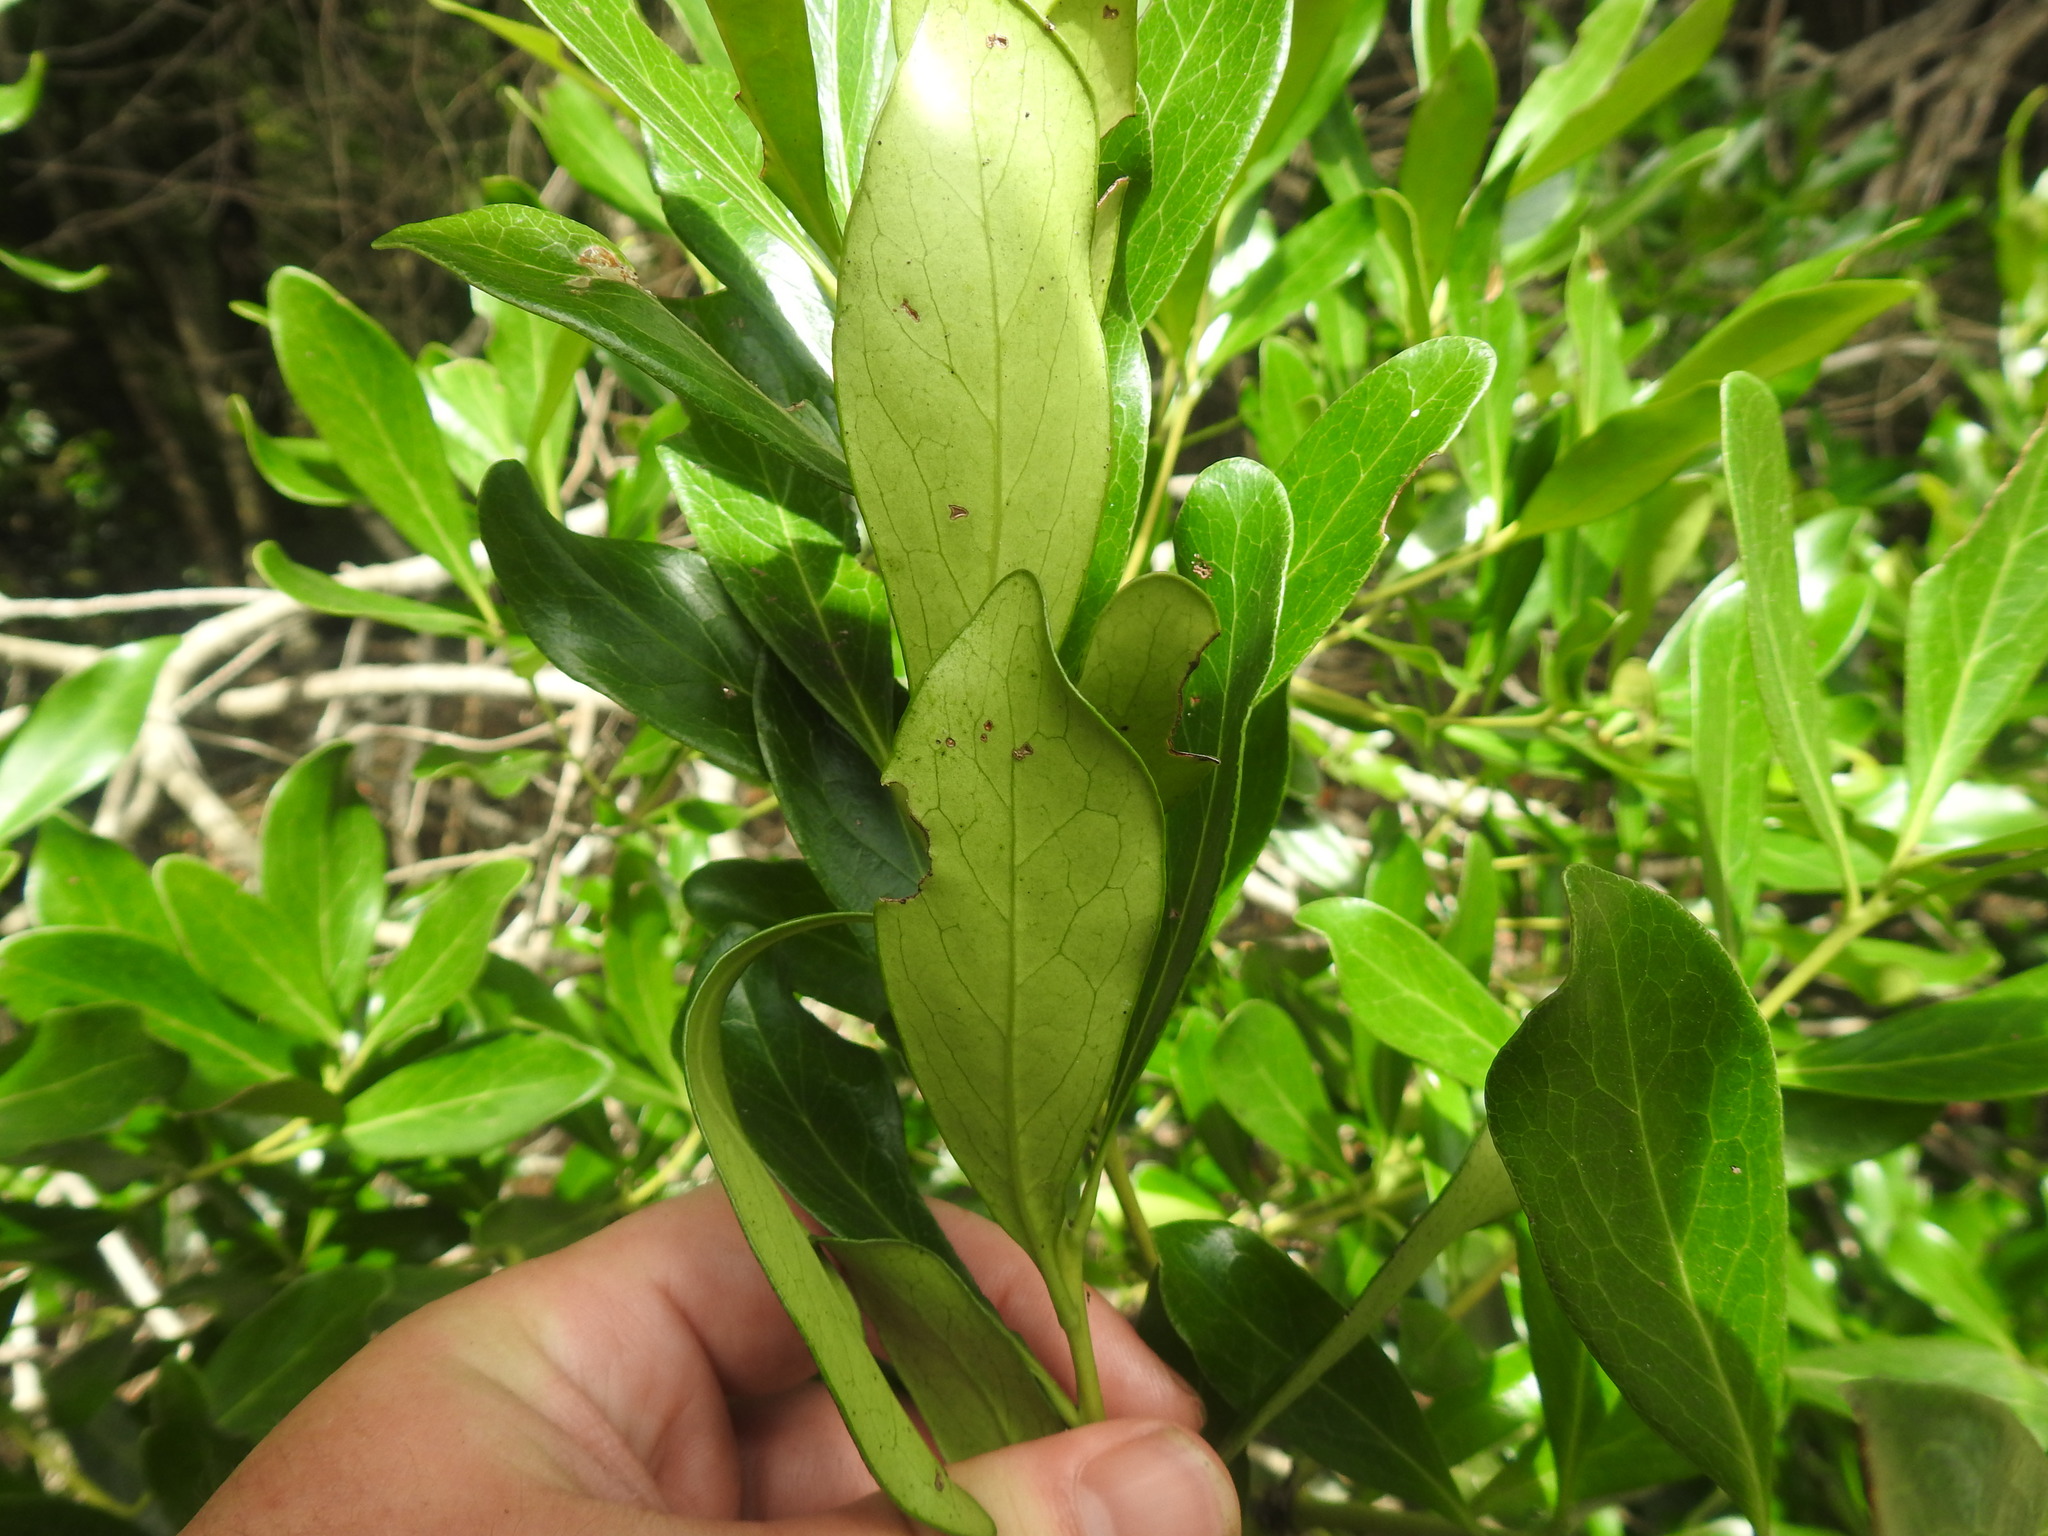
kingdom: Plantae
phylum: Tracheophyta
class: Magnoliopsida
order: Apiales
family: Pittosporaceae
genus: Pittosporum
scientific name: Pittosporum viridiflorum
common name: Cape cheesewood
